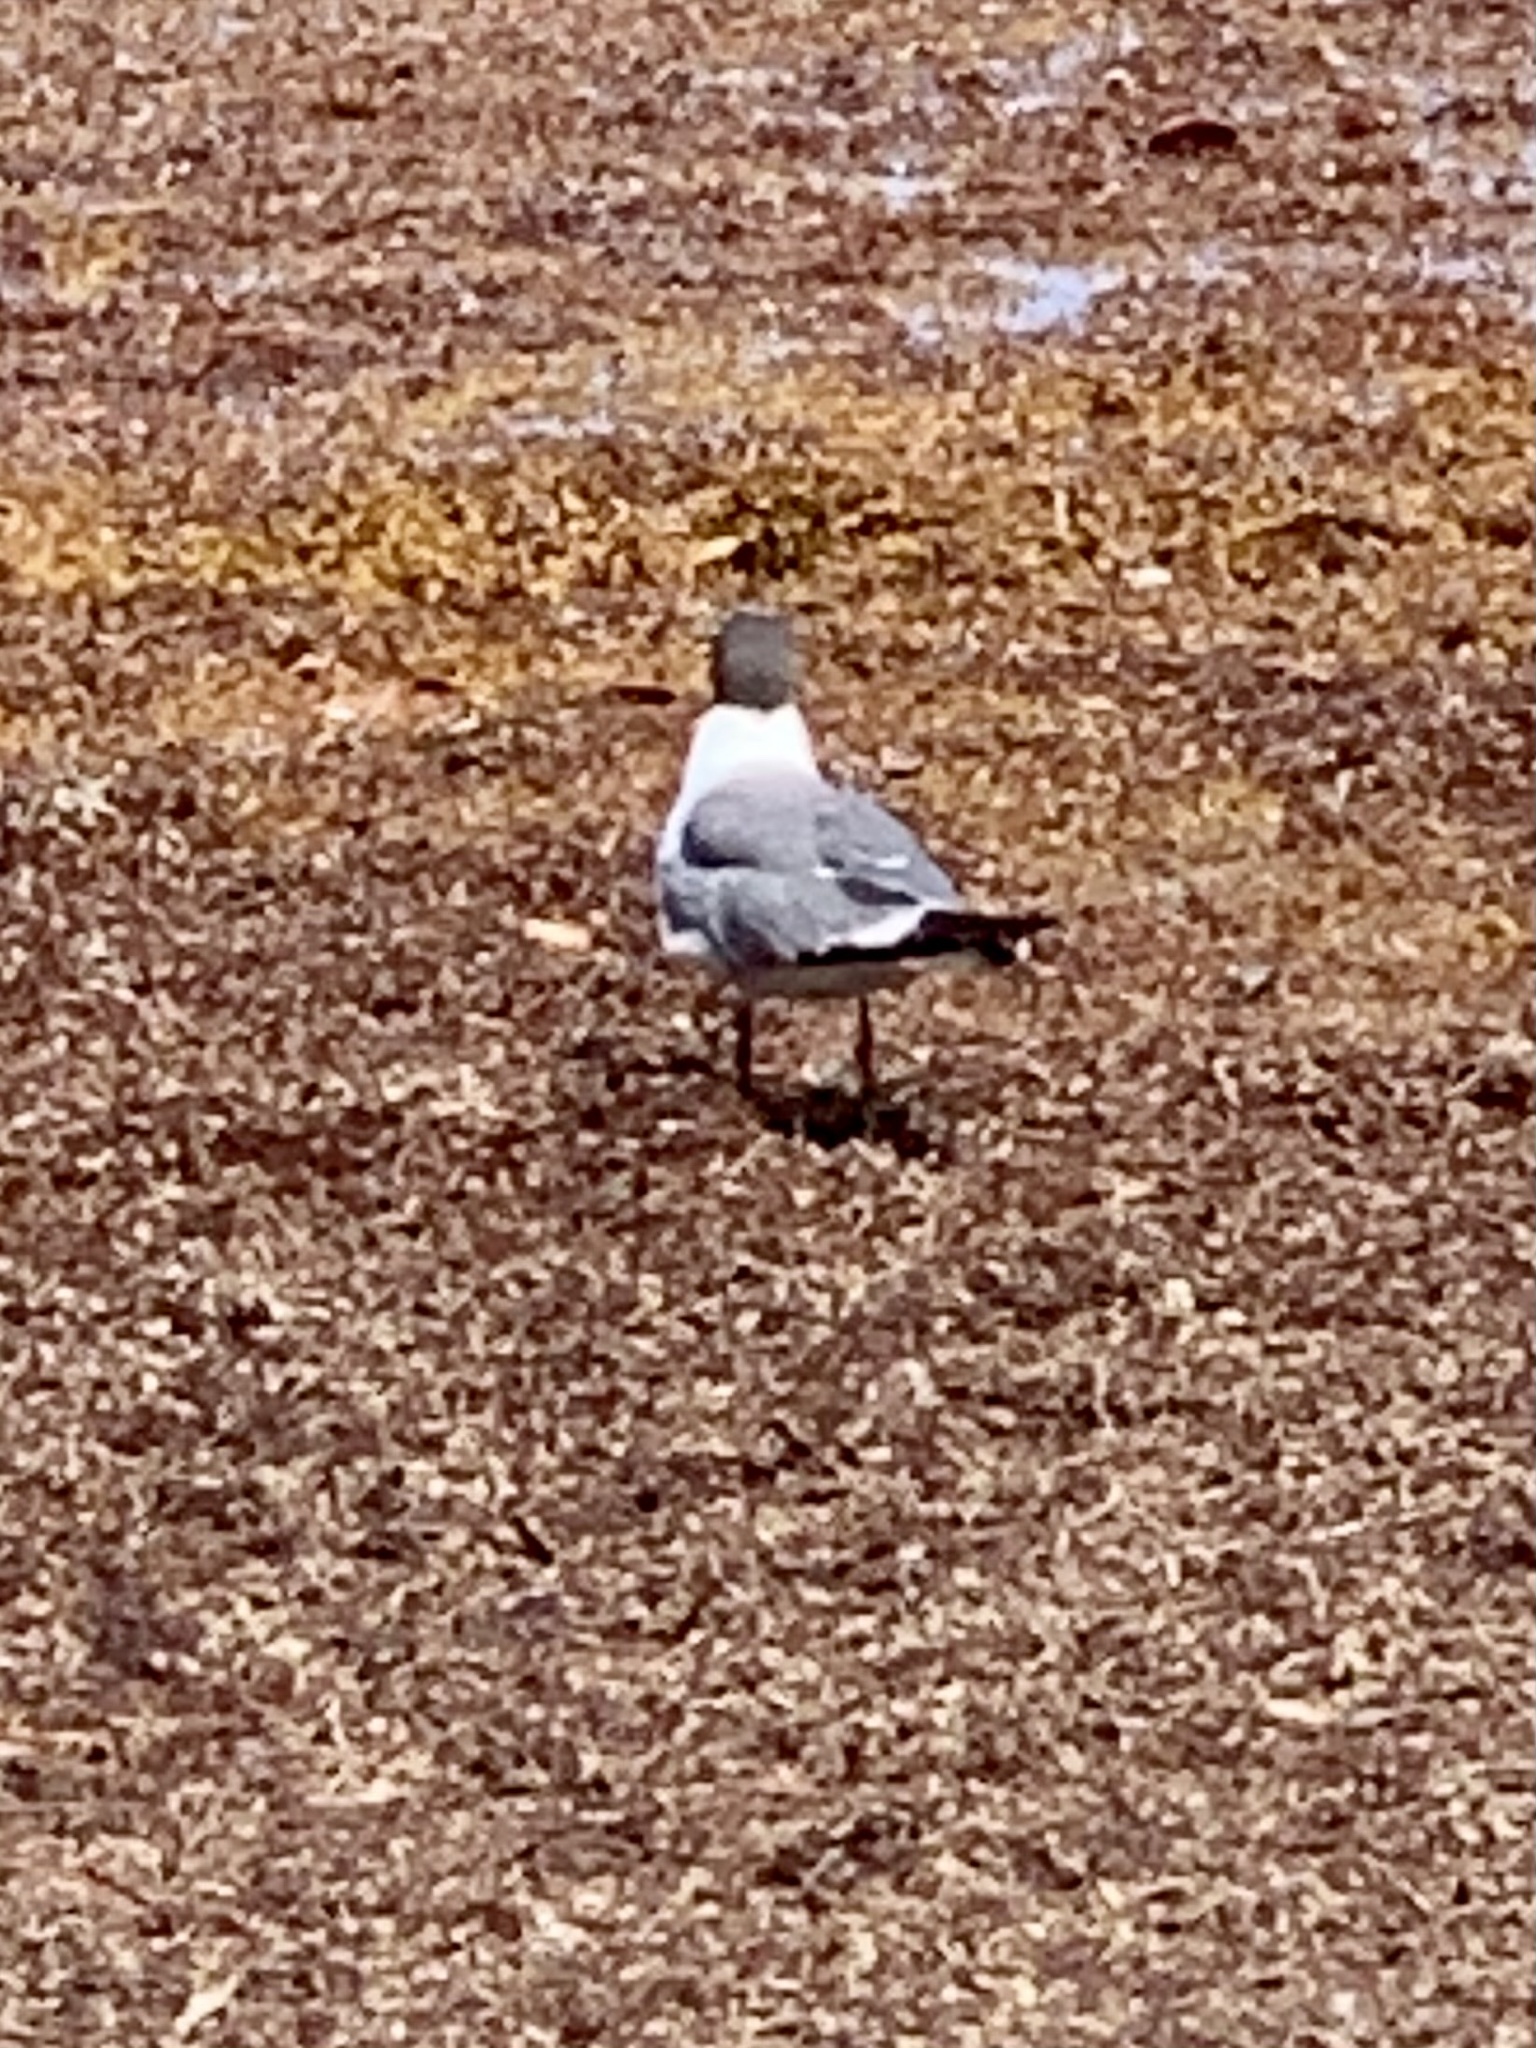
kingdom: Animalia
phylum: Chordata
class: Aves
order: Charadriiformes
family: Laridae
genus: Leucophaeus
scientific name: Leucophaeus atricilla
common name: Laughing gull
